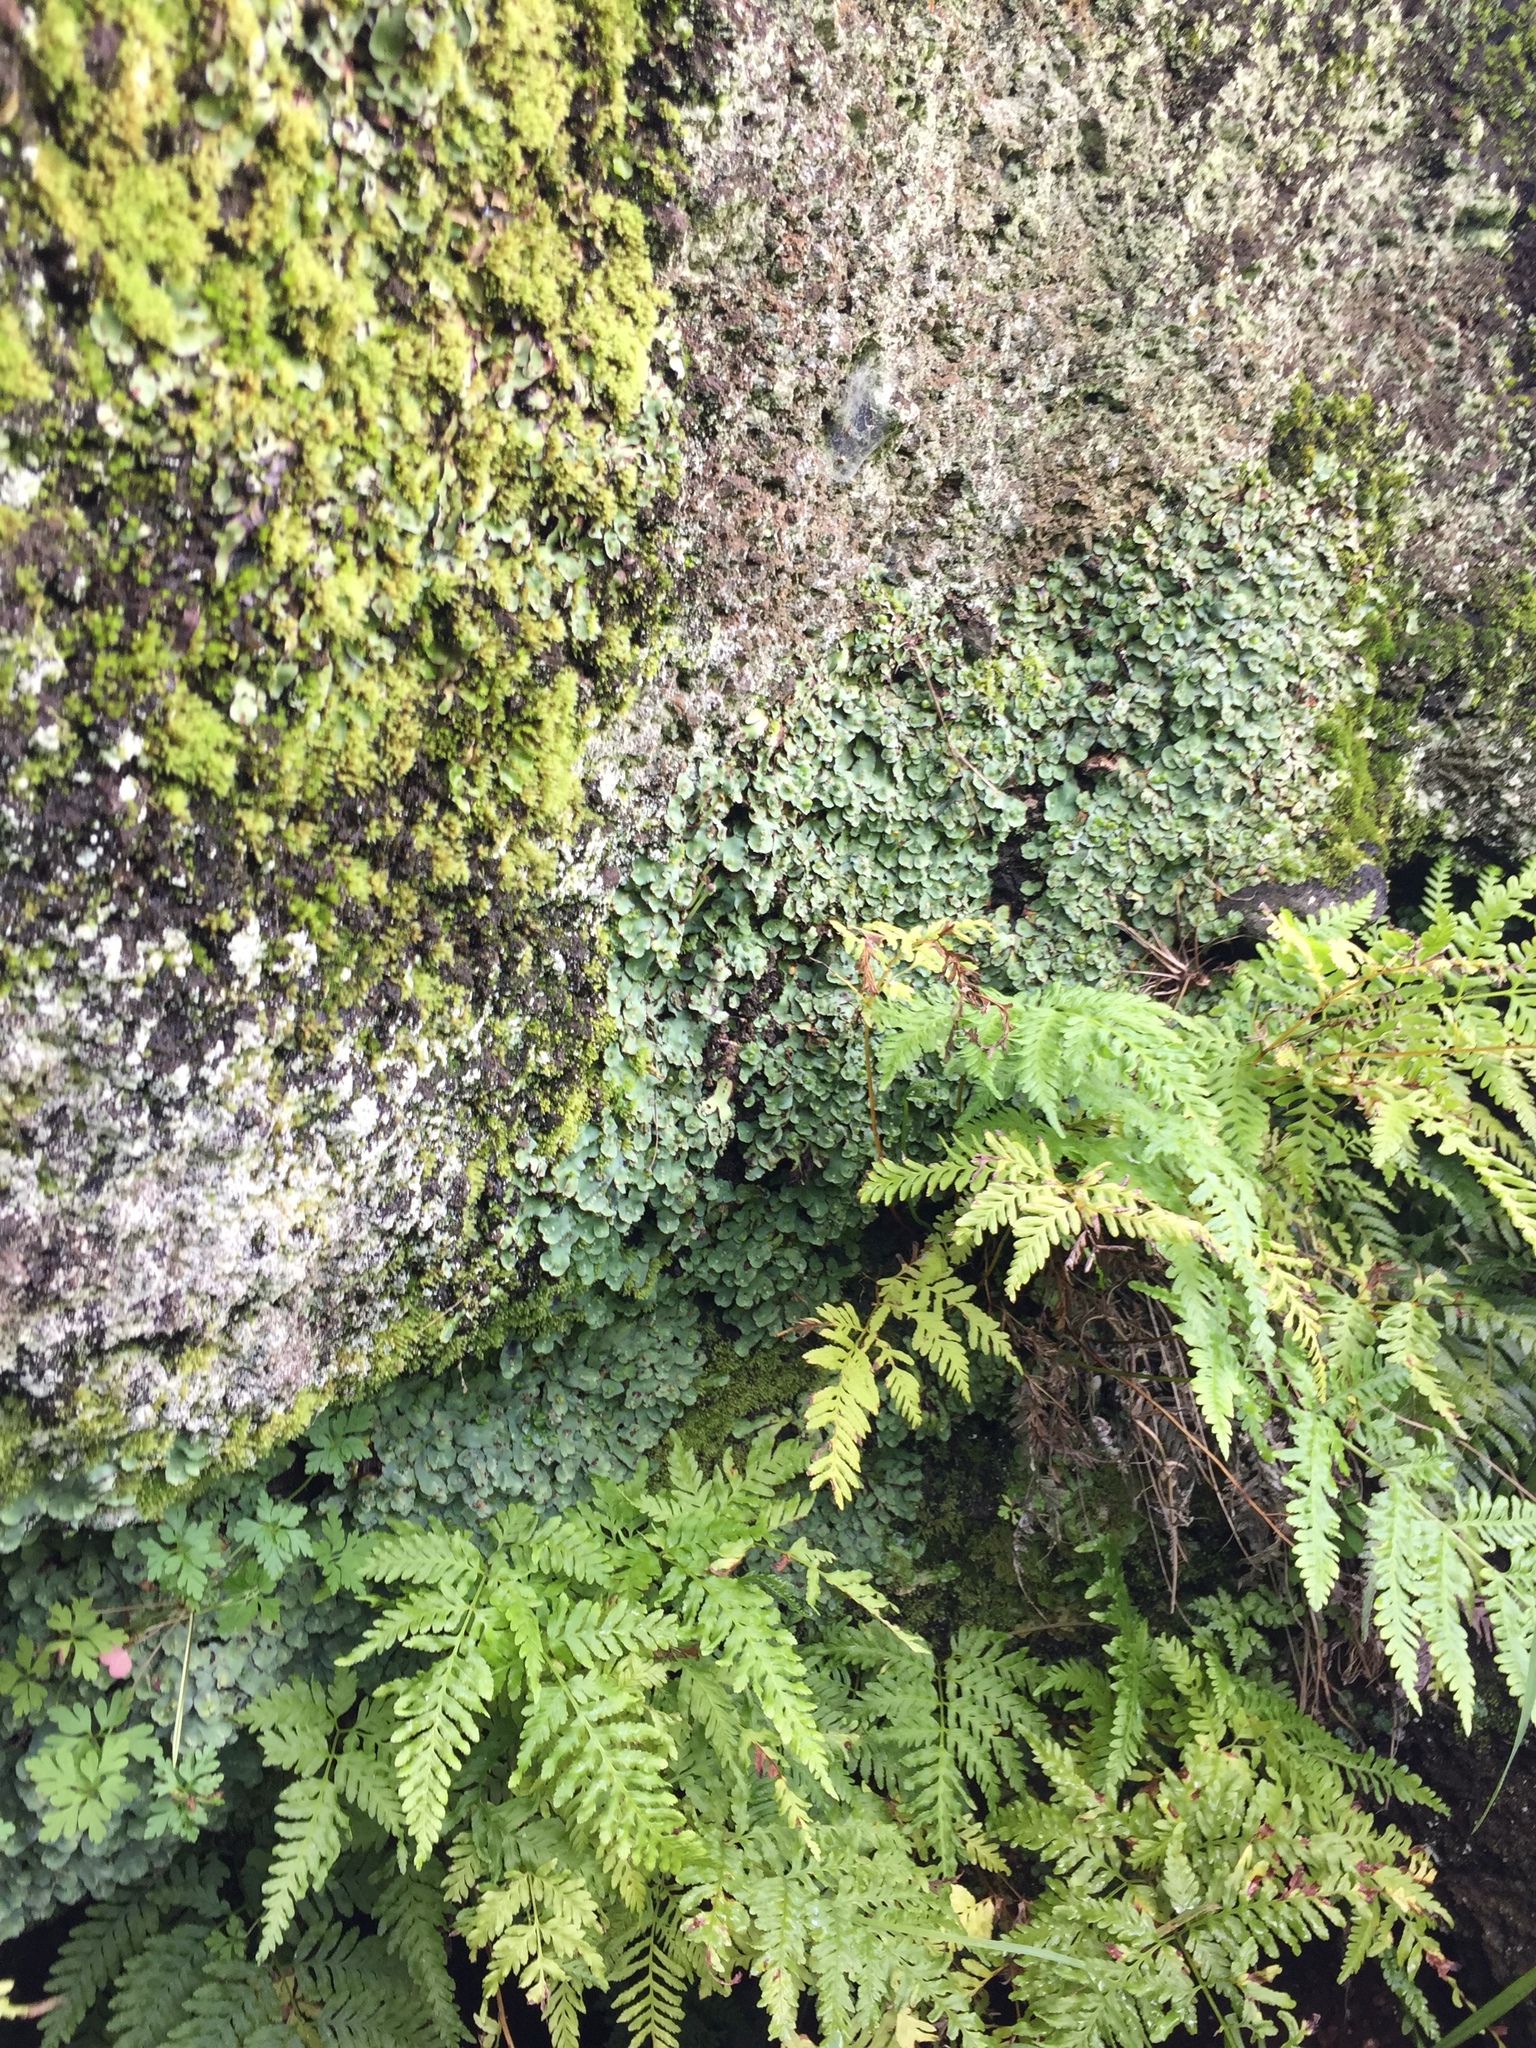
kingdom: Plantae
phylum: Marchantiophyta
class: Marchantiopsida
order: Marchantiales
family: Aytoniaceae
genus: Plagiochasma
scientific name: Plagiochasma rupestre
